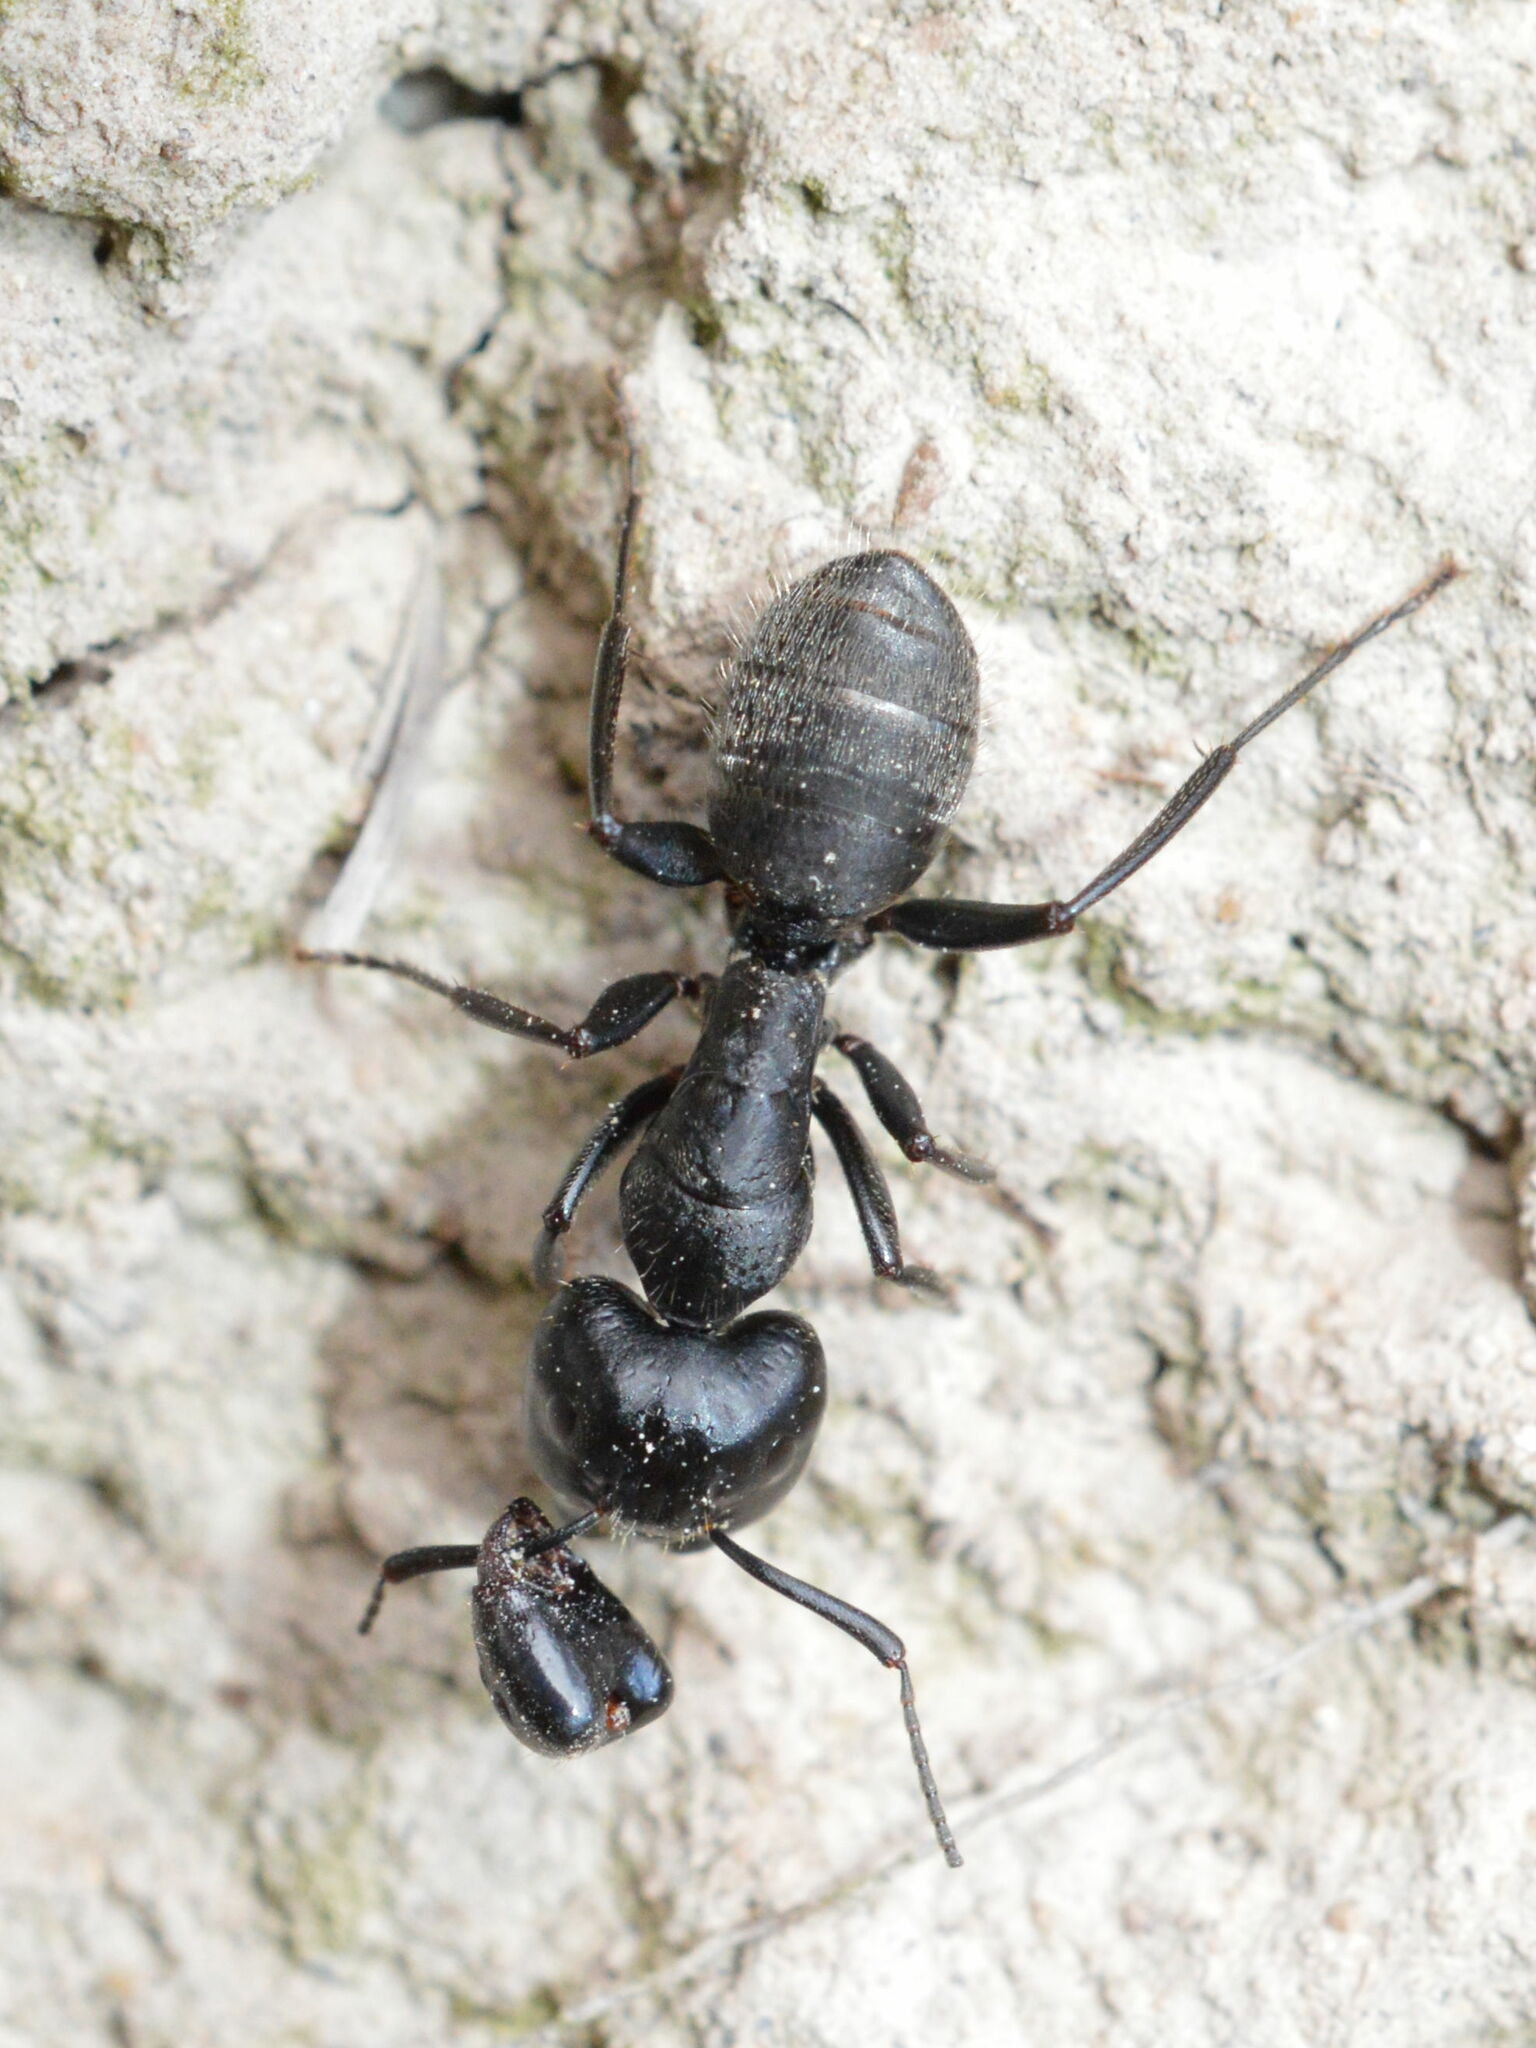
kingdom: Animalia
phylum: Arthropoda
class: Insecta
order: Hymenoptera
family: Formicidae
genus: Camponotus
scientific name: Camponotus vagus
